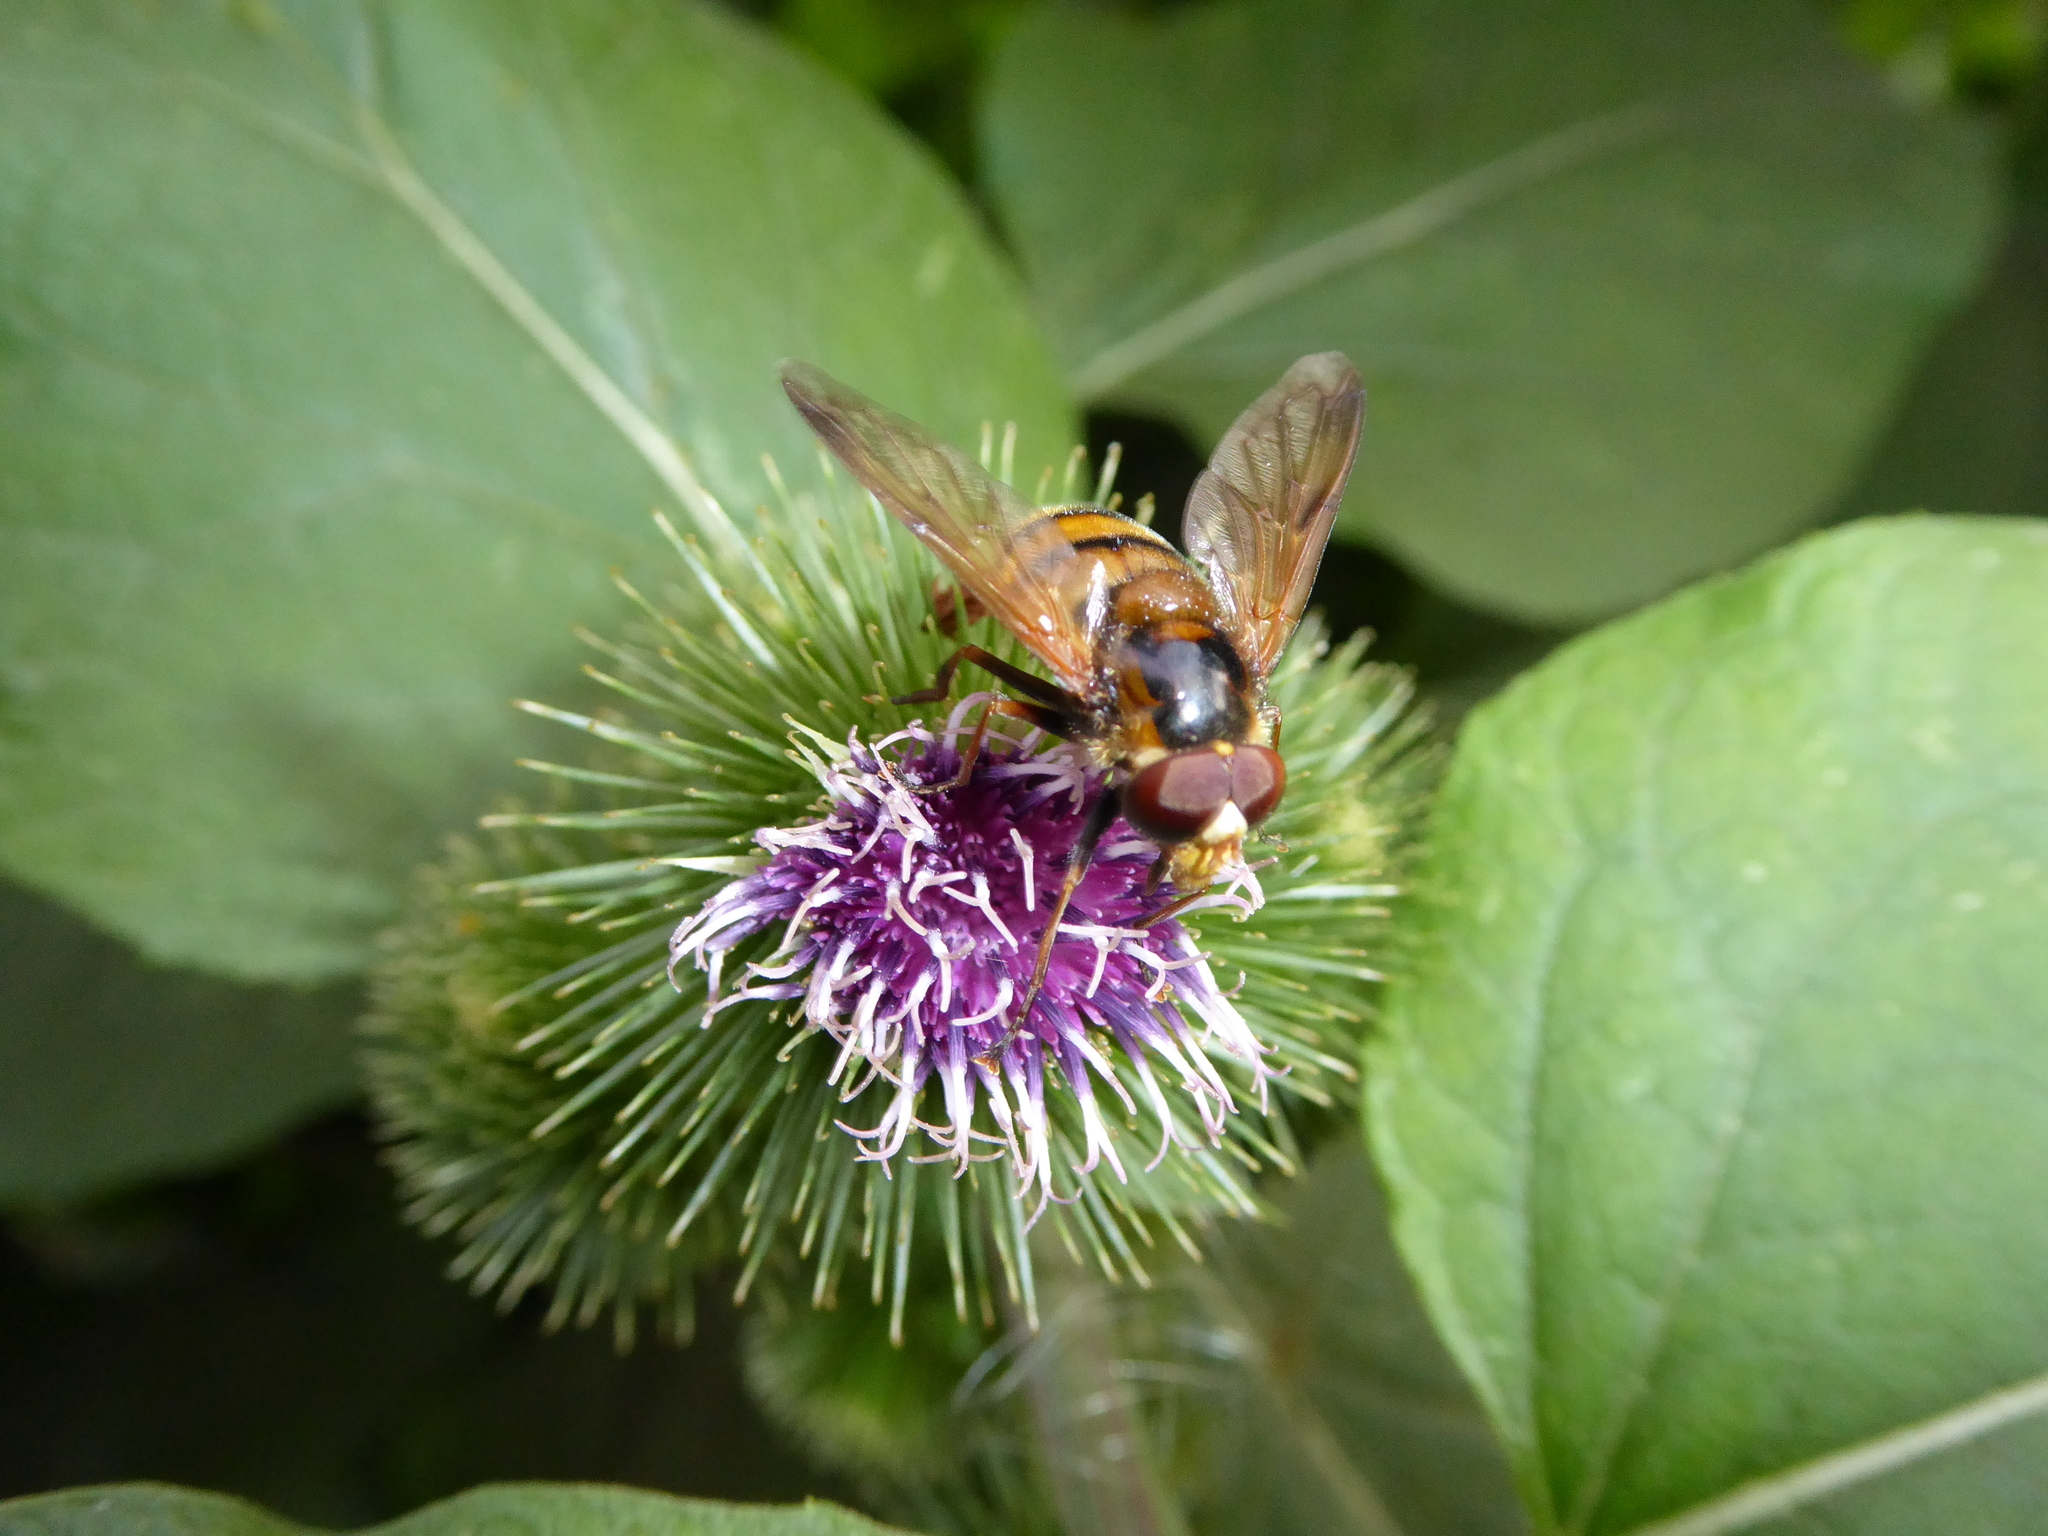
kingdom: Animalia
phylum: Arthropoda
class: Insecta
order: Diptera
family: Syrphidae
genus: Volucella
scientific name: Volucella inanis
